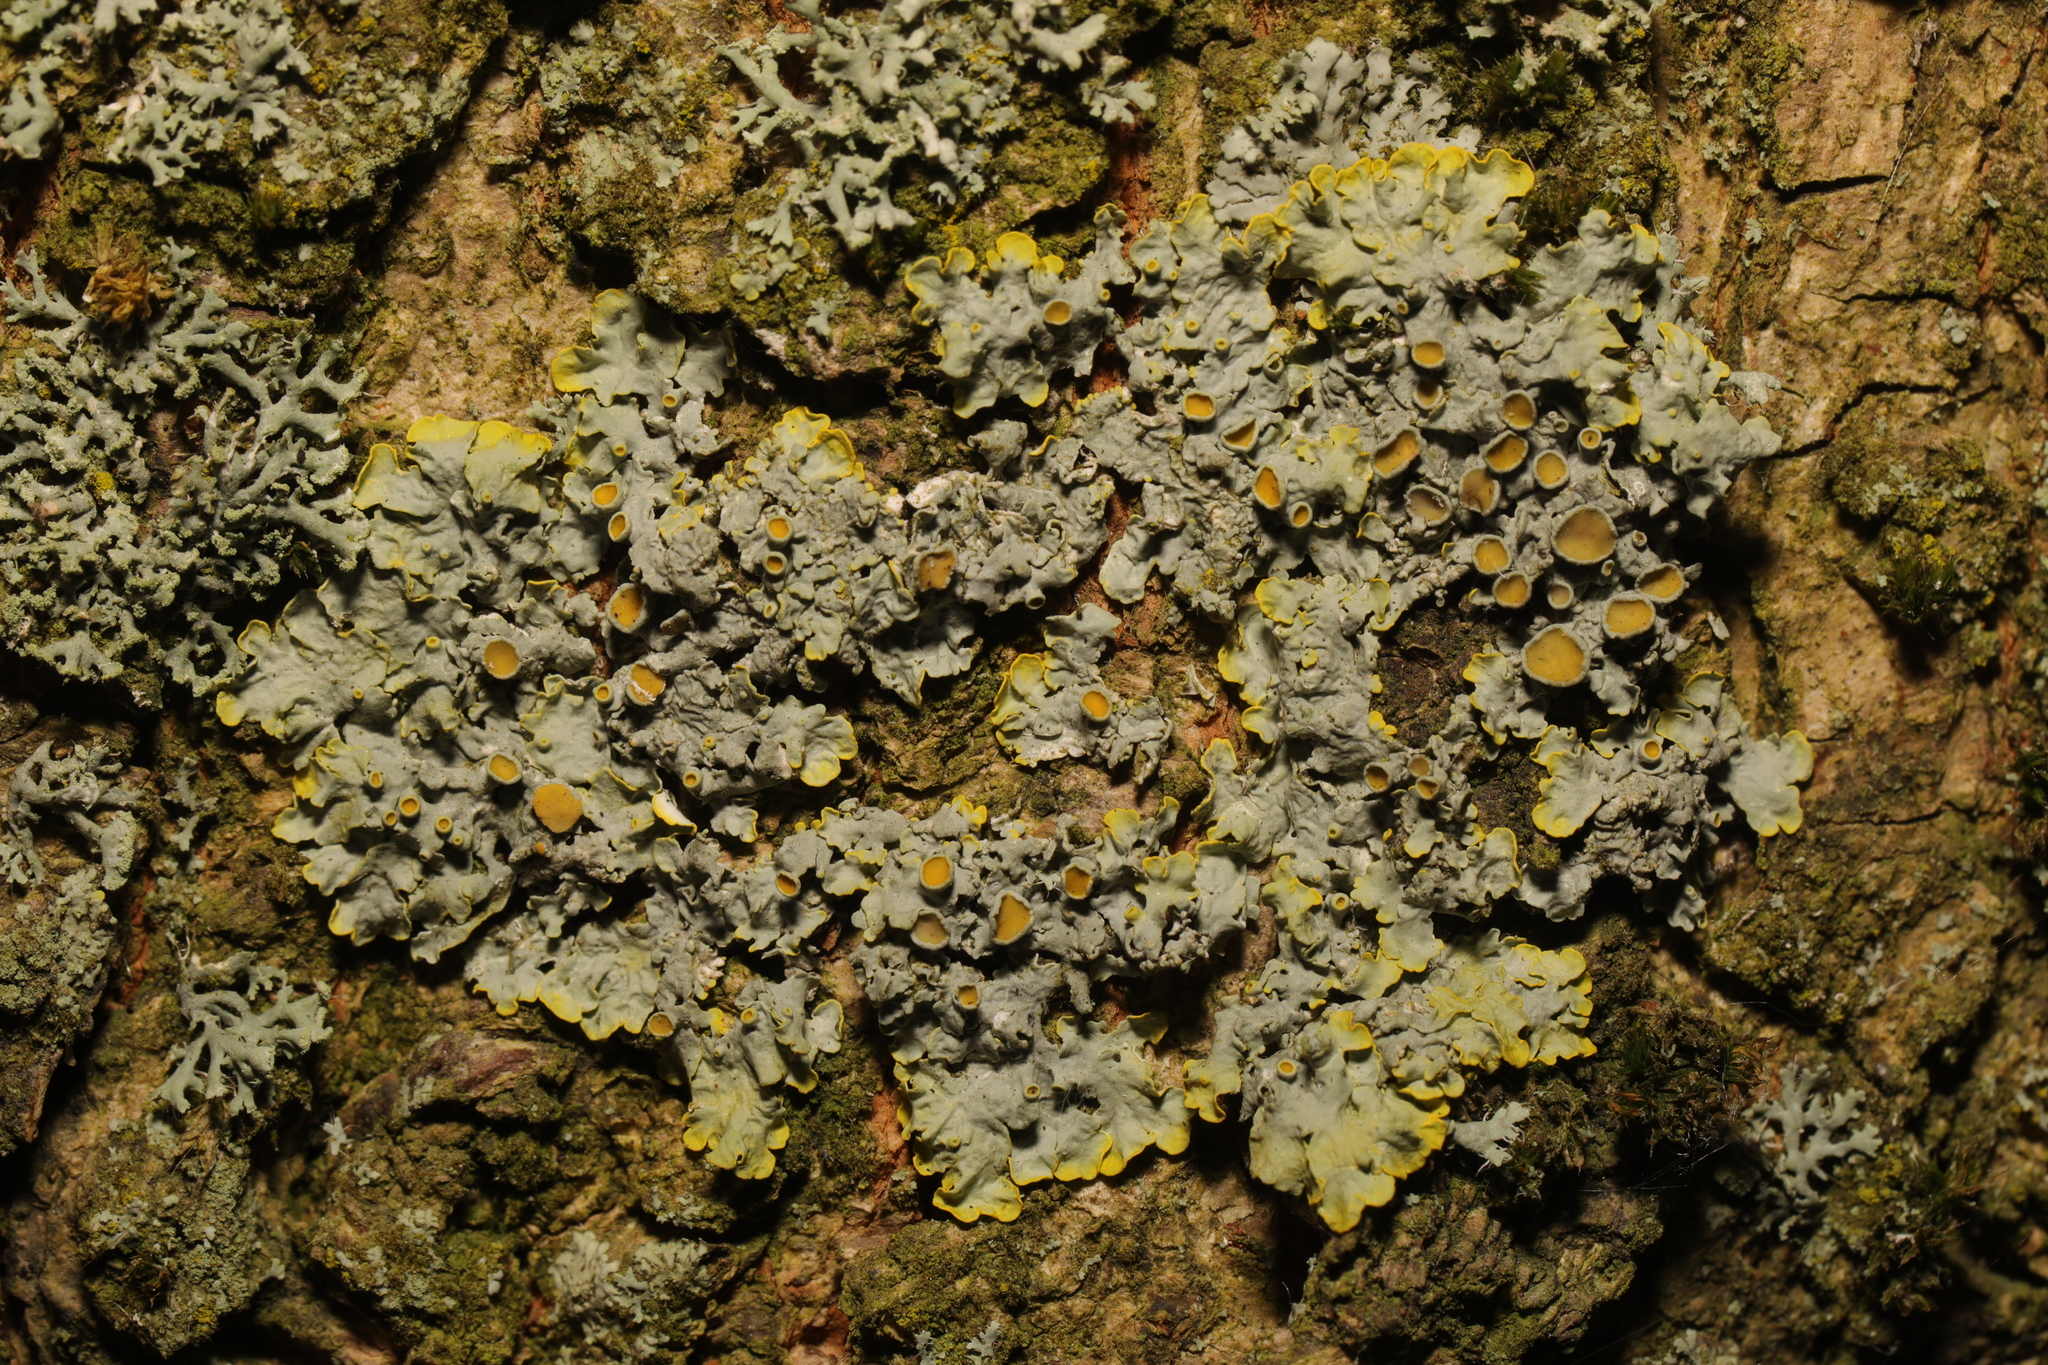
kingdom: Fungi
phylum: Ascomycota
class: Lecanoromycetes
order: Teloschistales
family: Teloschistaceae
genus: Xanthoria
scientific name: Xanthoria parietina
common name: Common orange lichen
